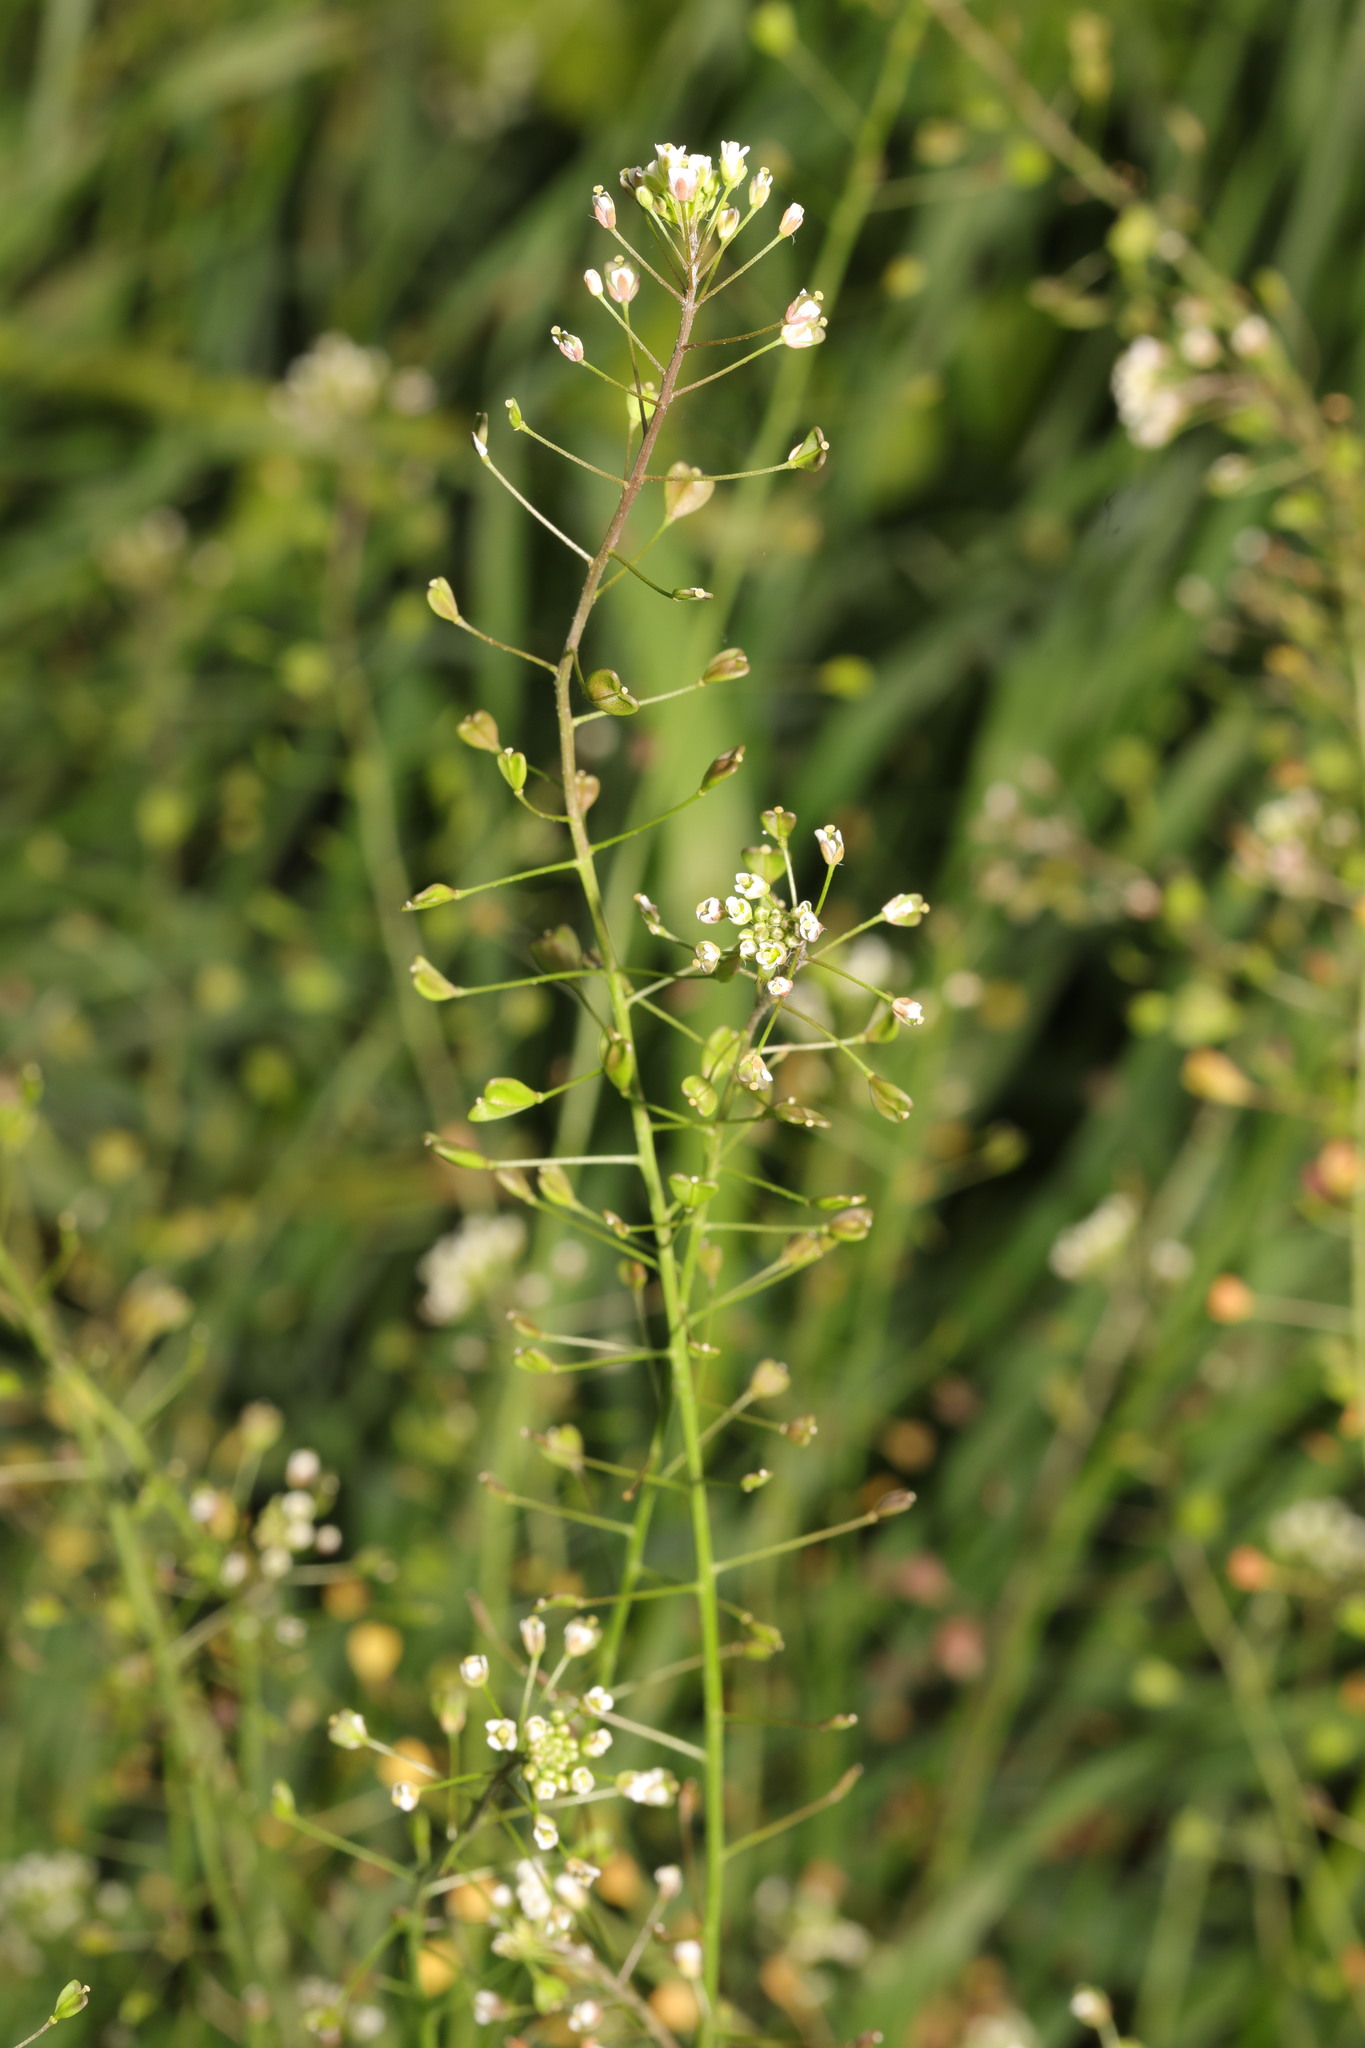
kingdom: Plantae
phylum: Tracheophyta
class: Magnoliopsida
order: Brassicales
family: Brassicaceae
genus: Capsella
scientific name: Capsella bursa-pastoris
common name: Shepherd's purse
